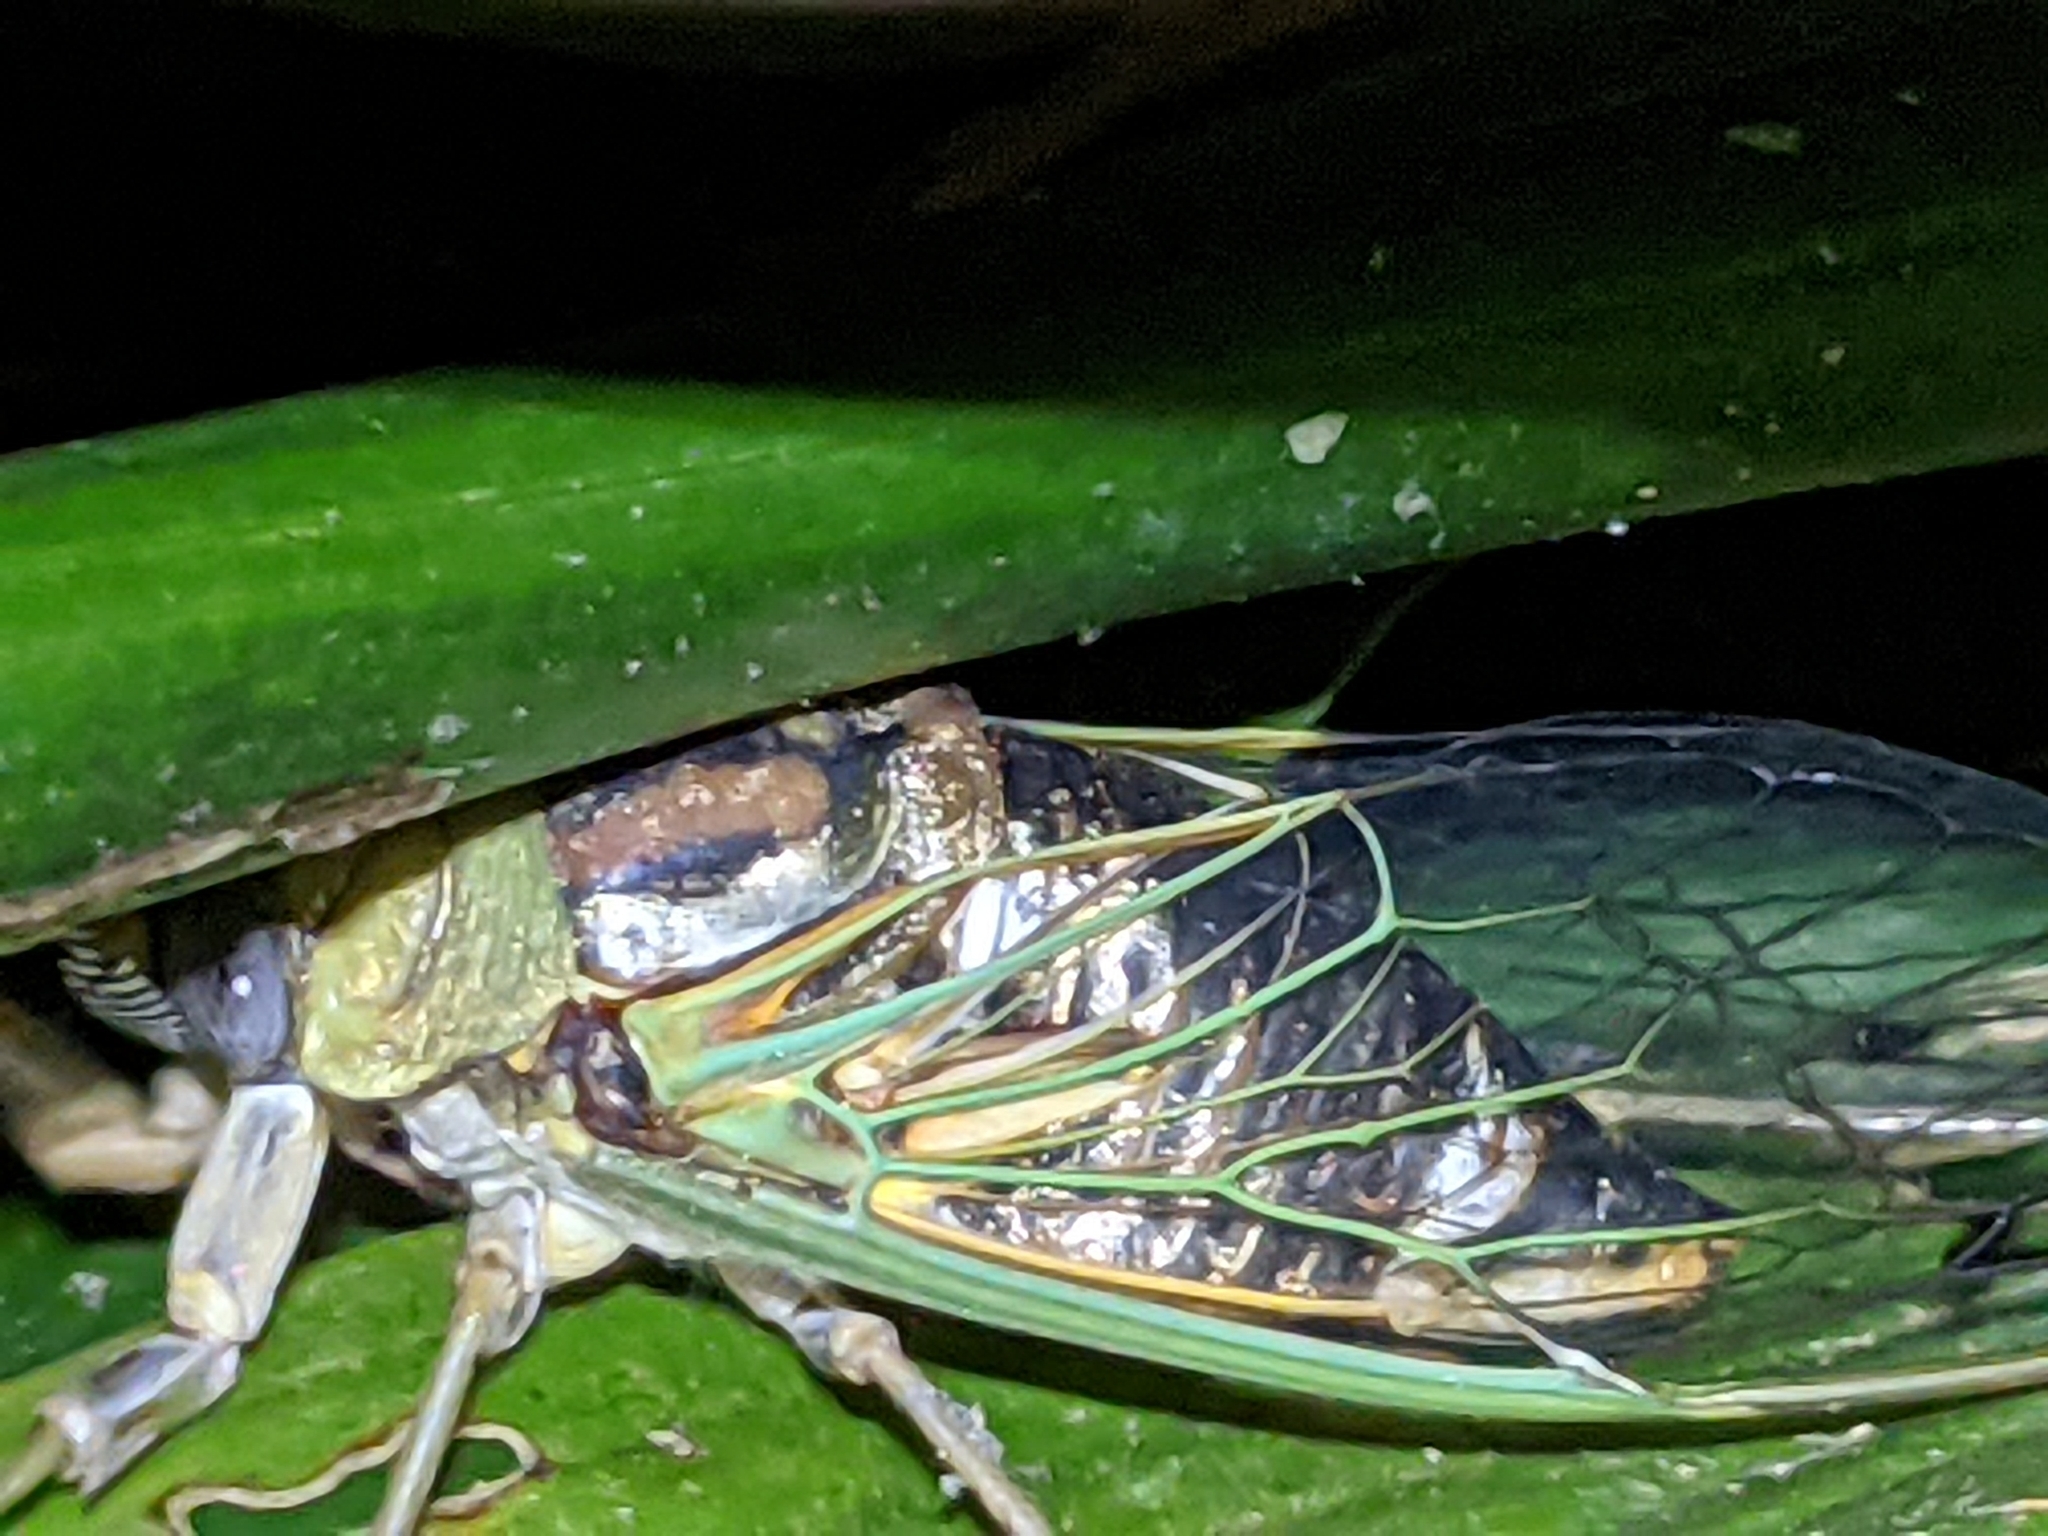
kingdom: Animalia
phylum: Arthropoda
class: Insecta
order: Hemiptera
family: Cicadidae
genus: Megatibicen
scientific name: Megatibicen resh
